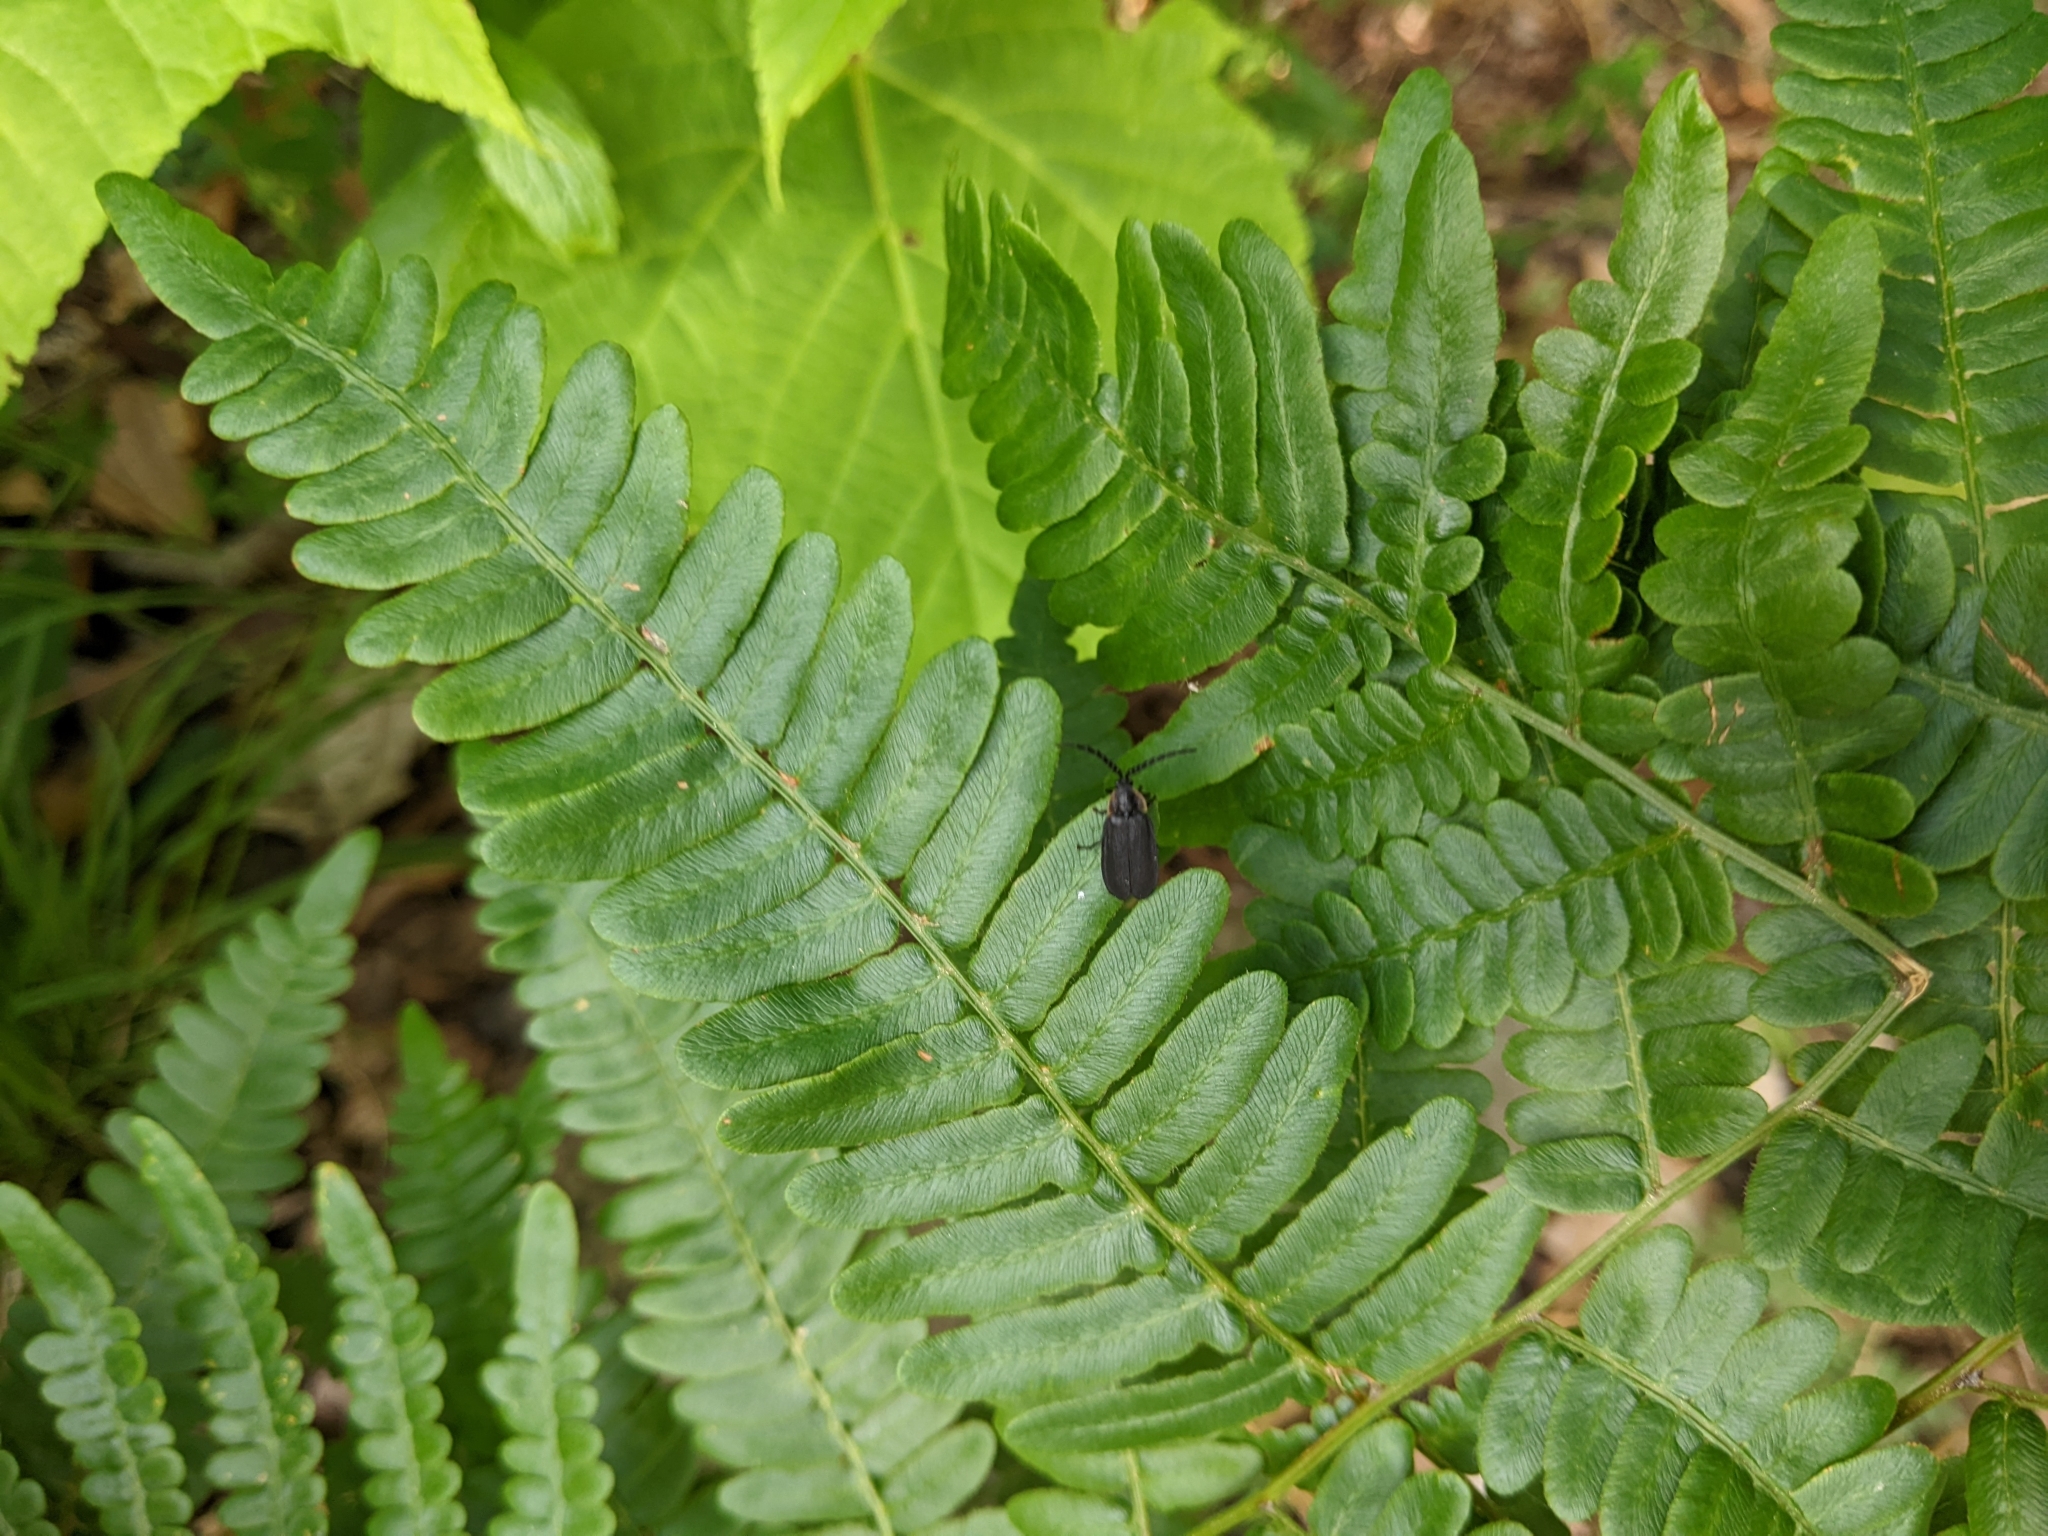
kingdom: Animalia
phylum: Arthropoda
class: Insecta
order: Coleoptera
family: Lampyridae
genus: Lucidota
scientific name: Lucidota atra
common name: Black firefly
